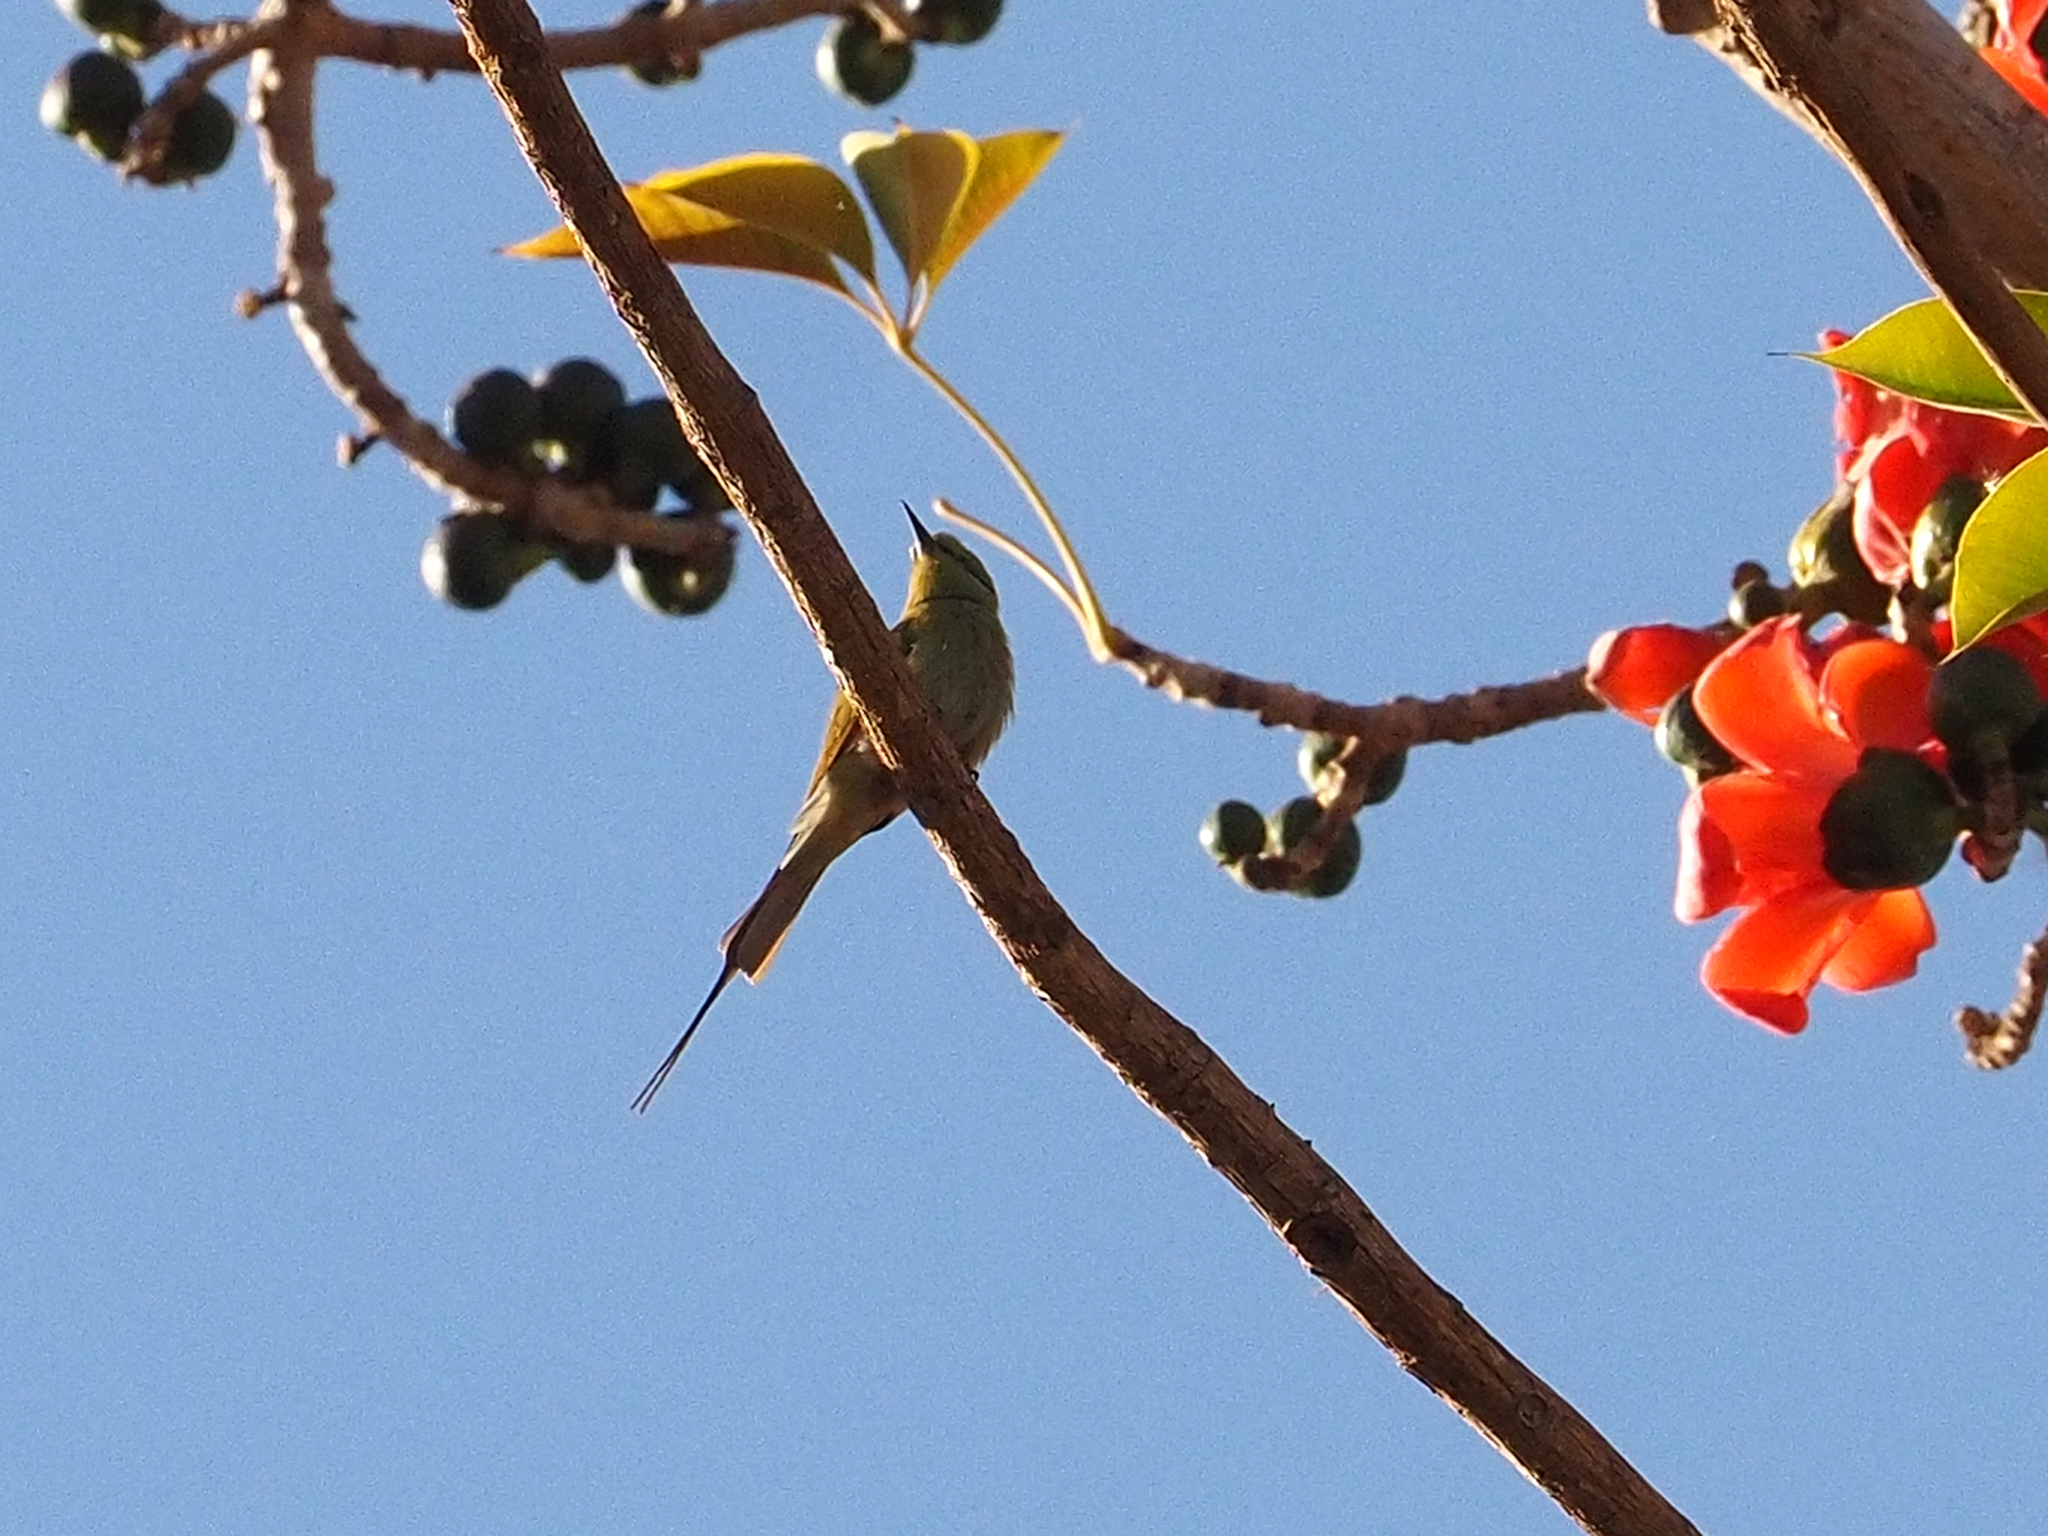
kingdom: Animalia
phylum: Chordata
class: Aves
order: Coraciiformes
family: Meropidae
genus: Merops
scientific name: Merops viridissimus
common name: African green bee-eater
